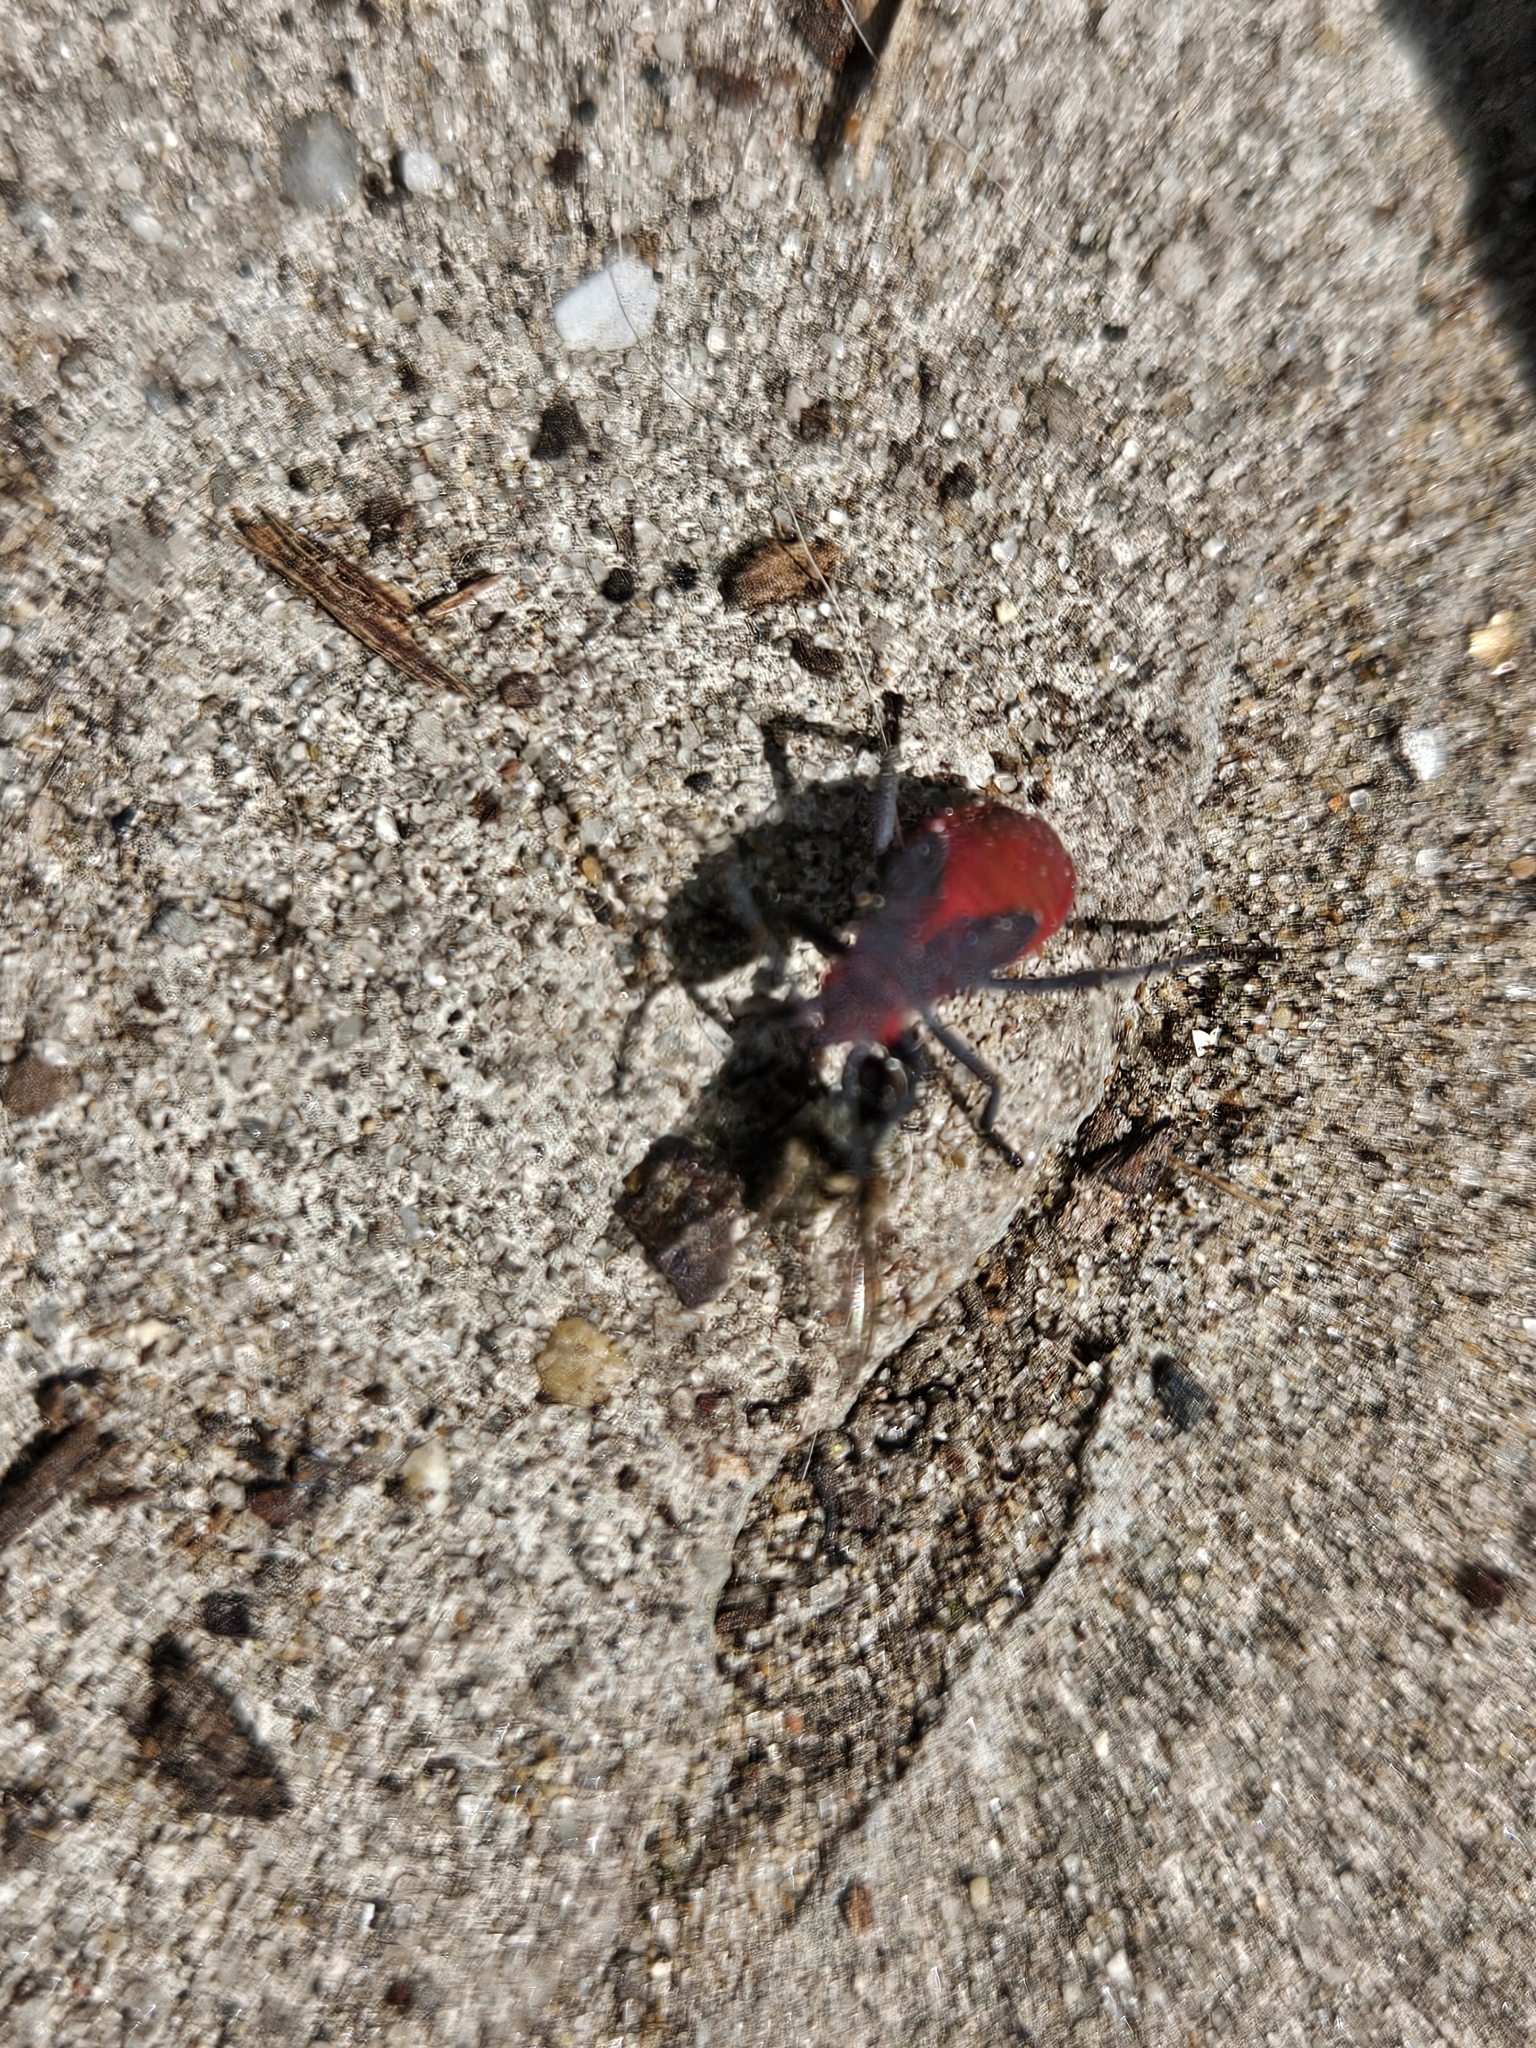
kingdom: Animalia
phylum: Arthropoda
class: Insecta
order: Hemiptera
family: Rhopalidae
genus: Jadera
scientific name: Jadera haematoloma
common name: Red-shouldered bug
